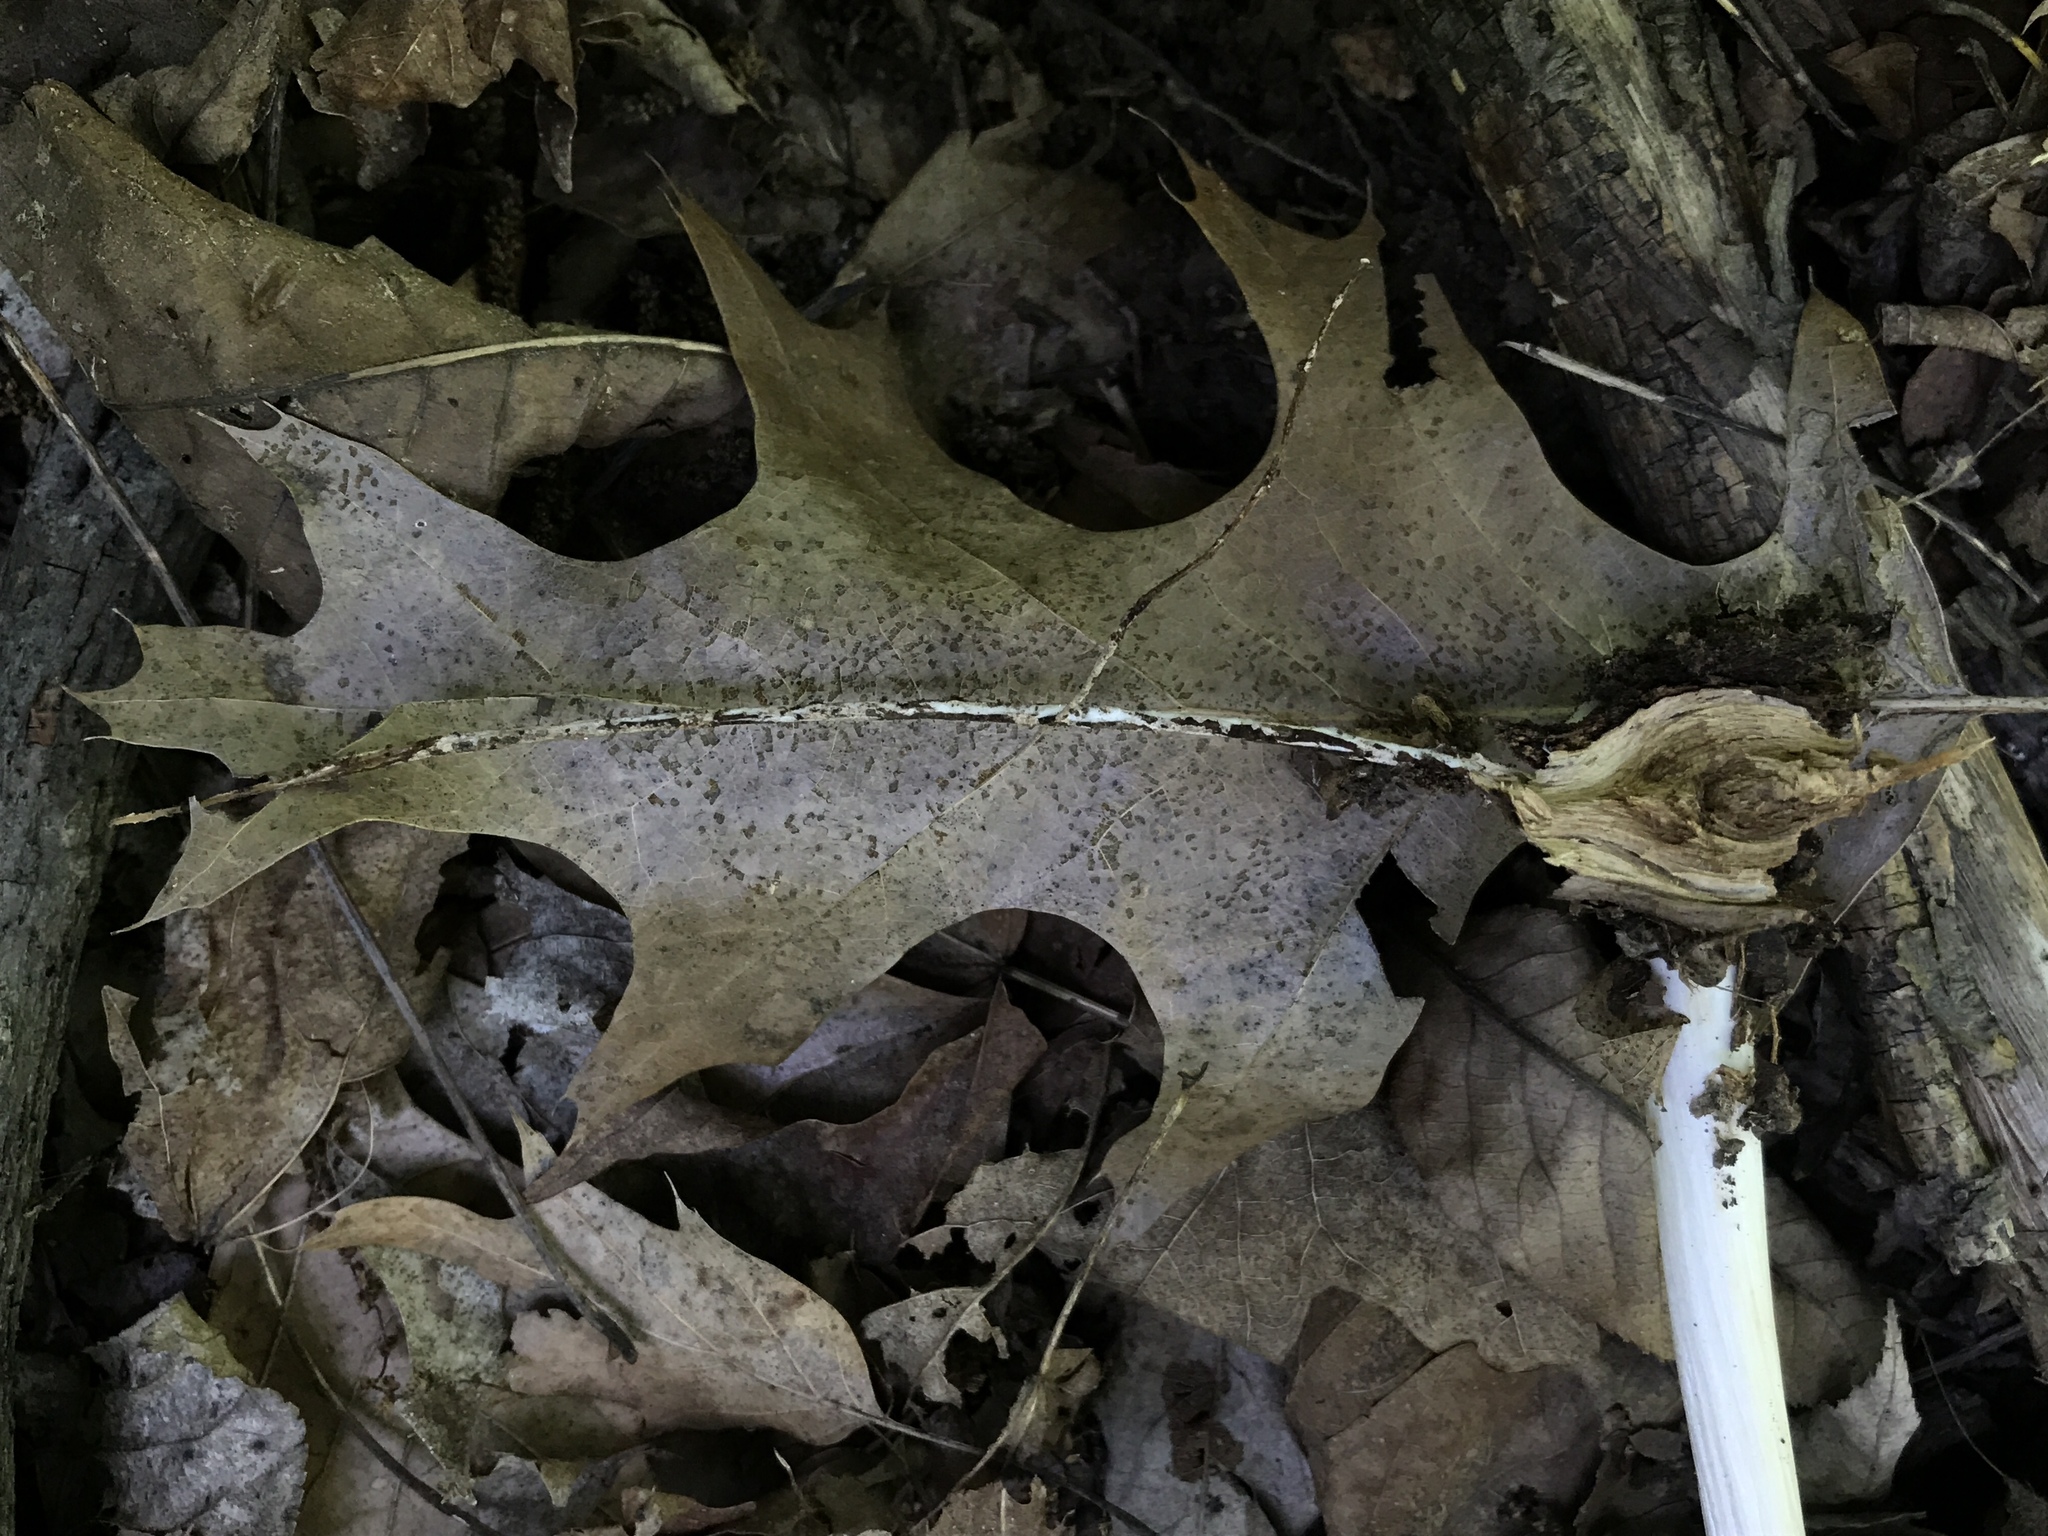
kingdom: Fungi
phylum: Basidiomycota
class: Agaricomycetes
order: Agaricales
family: Tricholomataceae
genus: Megacollybia
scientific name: Megacollybia rodmanii
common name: Eastern american platterful mushroom
